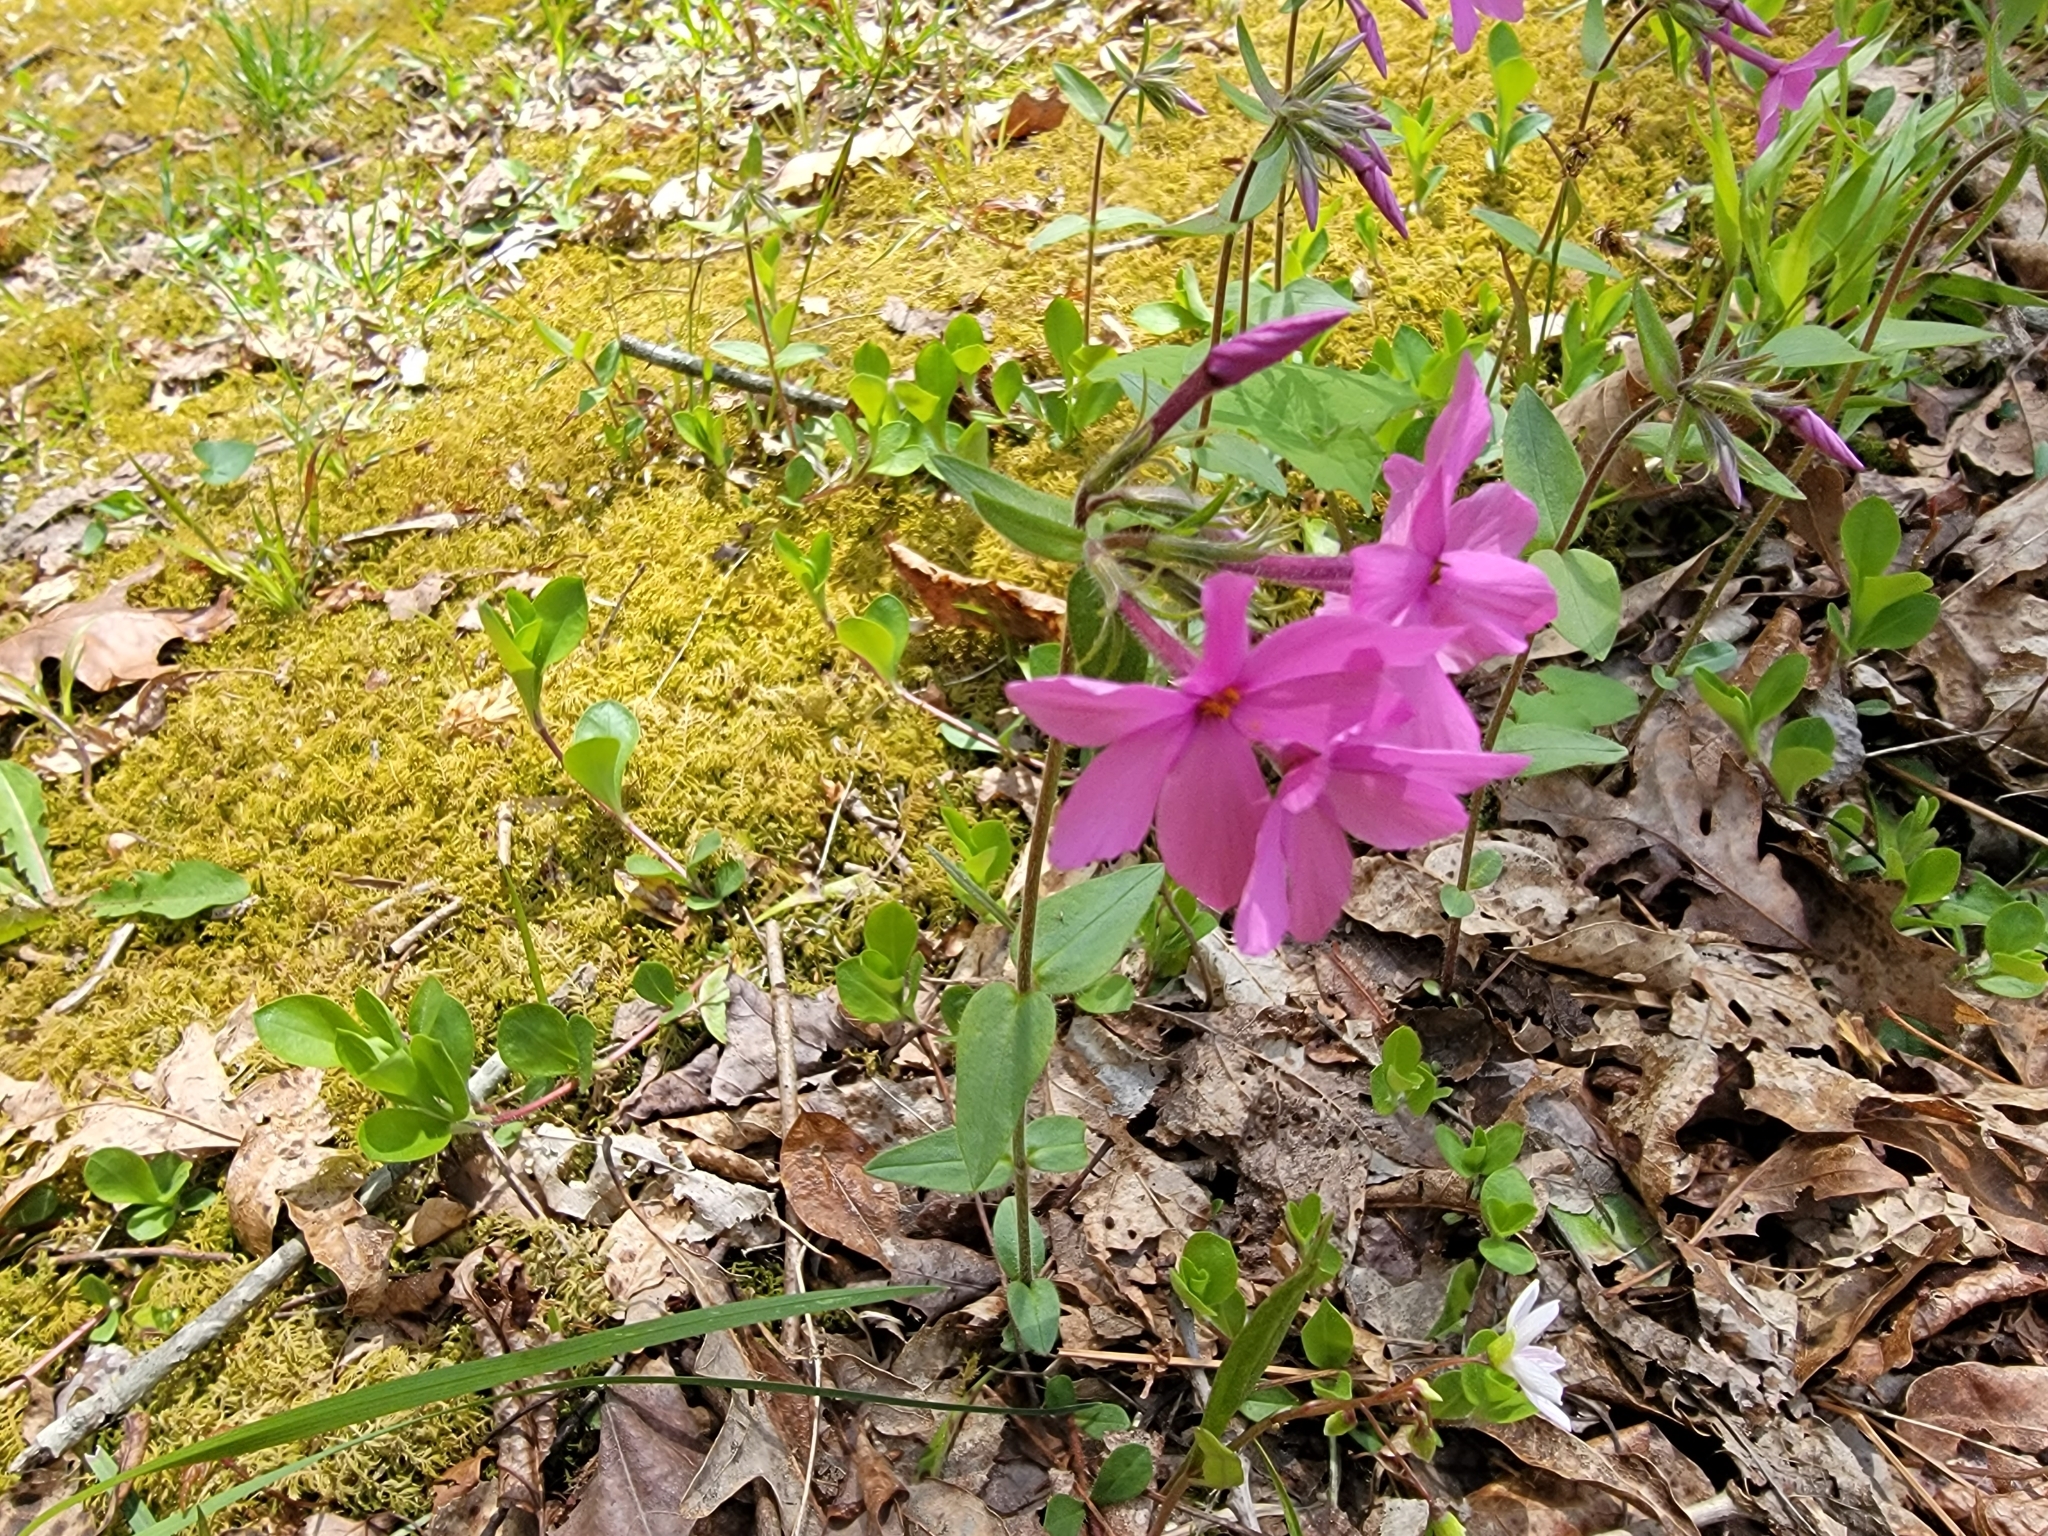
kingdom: Plantae
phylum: Tracheophyta
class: Magnoliopsida
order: Ericales
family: Polemoniaceae
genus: Phlox
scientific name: Phlox stolonifera
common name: Creeping phlox
